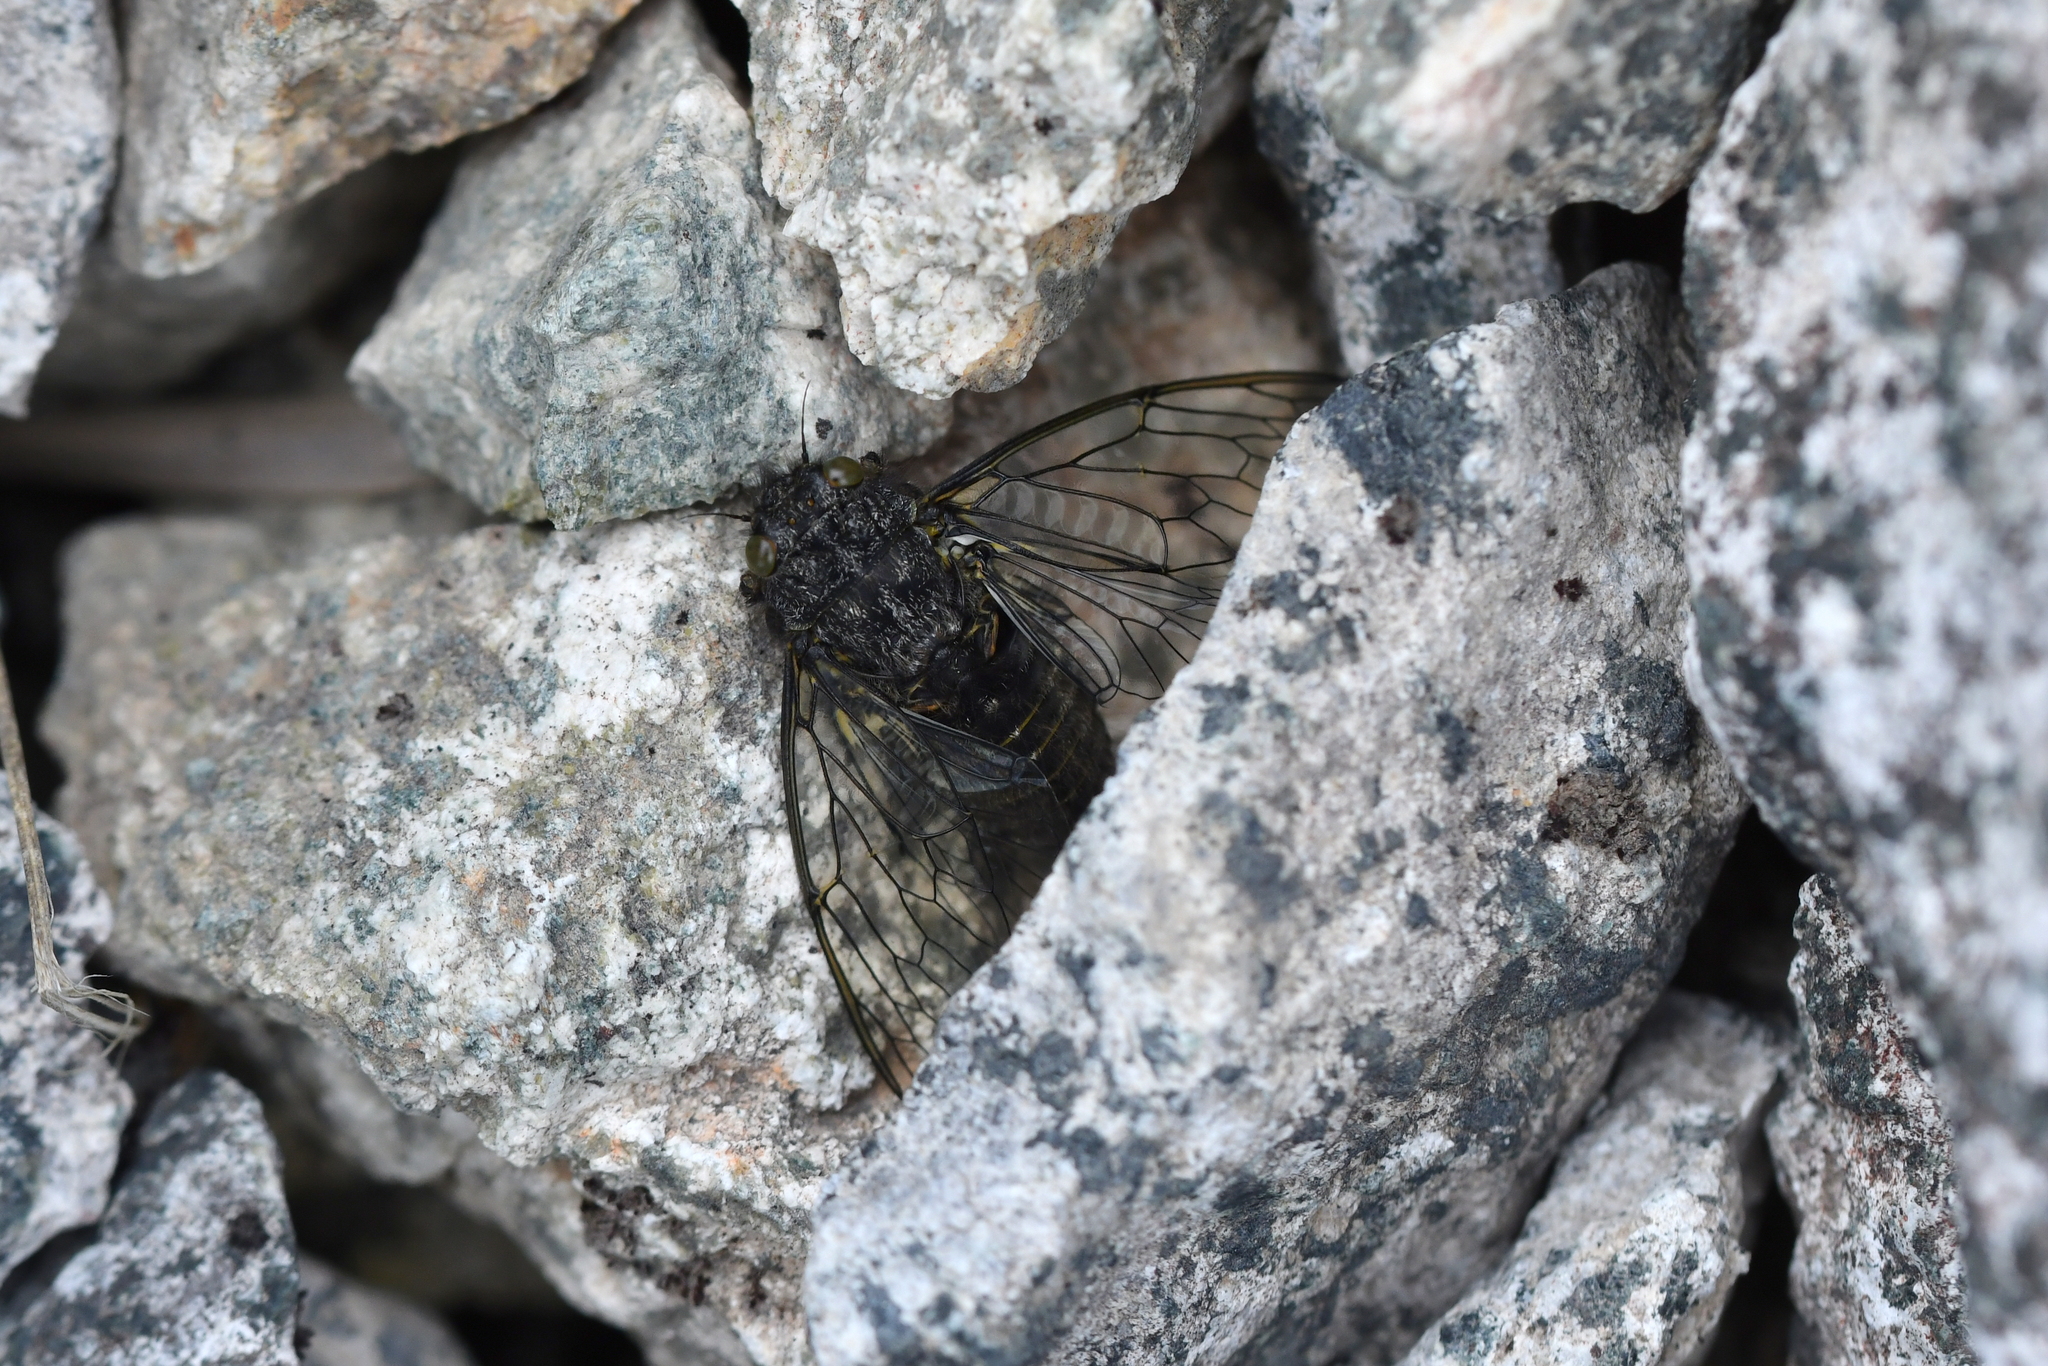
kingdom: Animalia
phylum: Arthropoda
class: Insecta
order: Hemiptera
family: Cicadidae
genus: Maoricicada
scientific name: Maoricicada oromelaena
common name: Greater alpine black cicada
